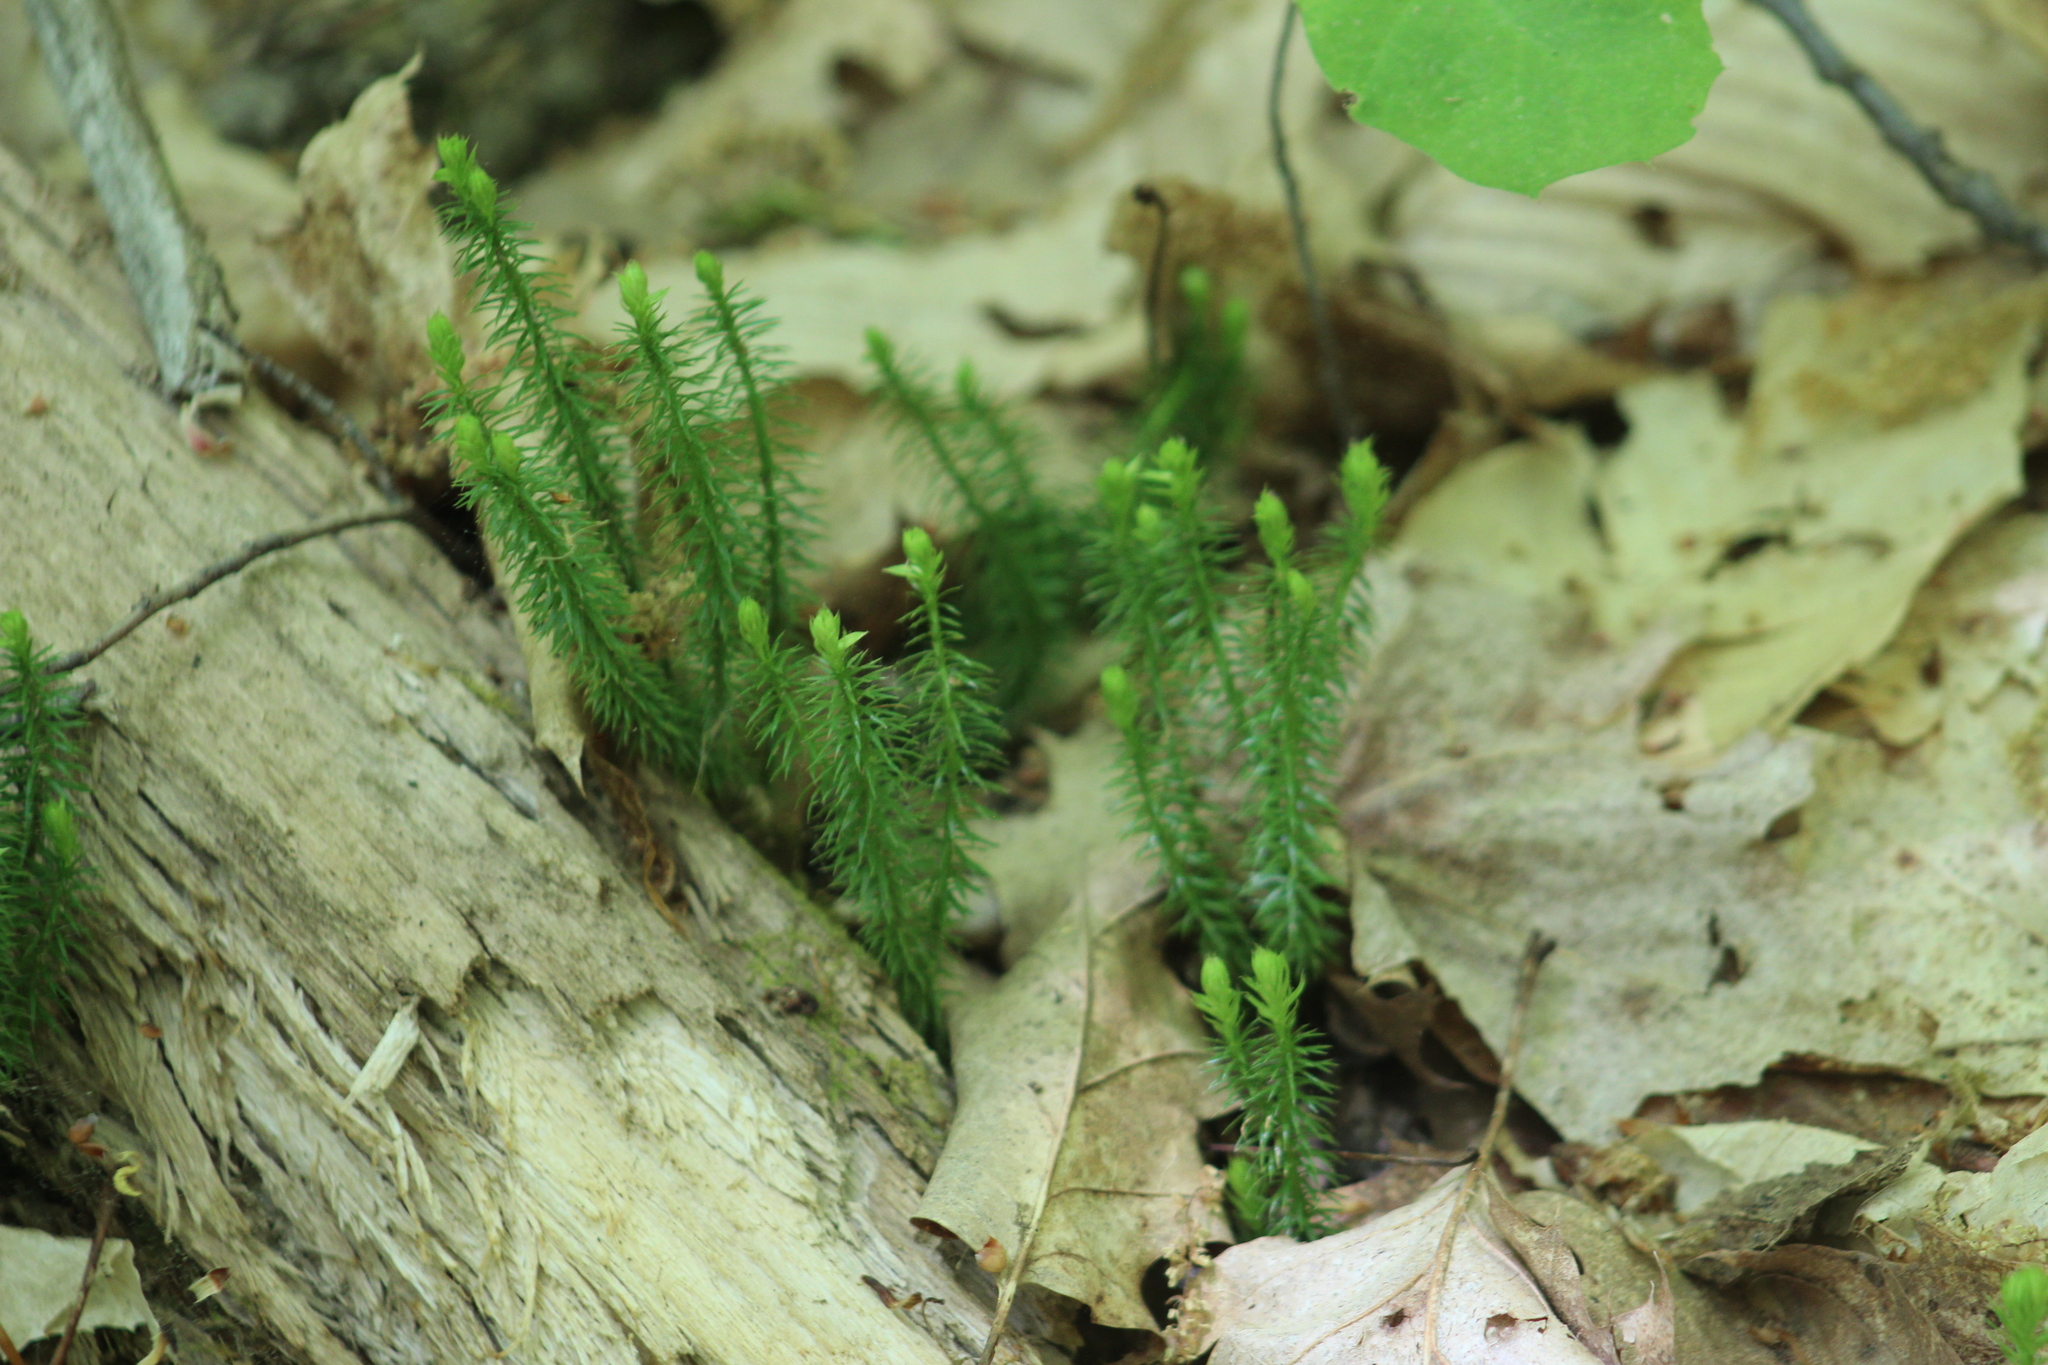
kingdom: Plantae
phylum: Tracheophyta
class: Lycopodiopsida
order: Lycopodiales
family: Lycopodiaceae
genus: Spinulum
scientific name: Spinulum annotinum
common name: Interrupted club-moss
